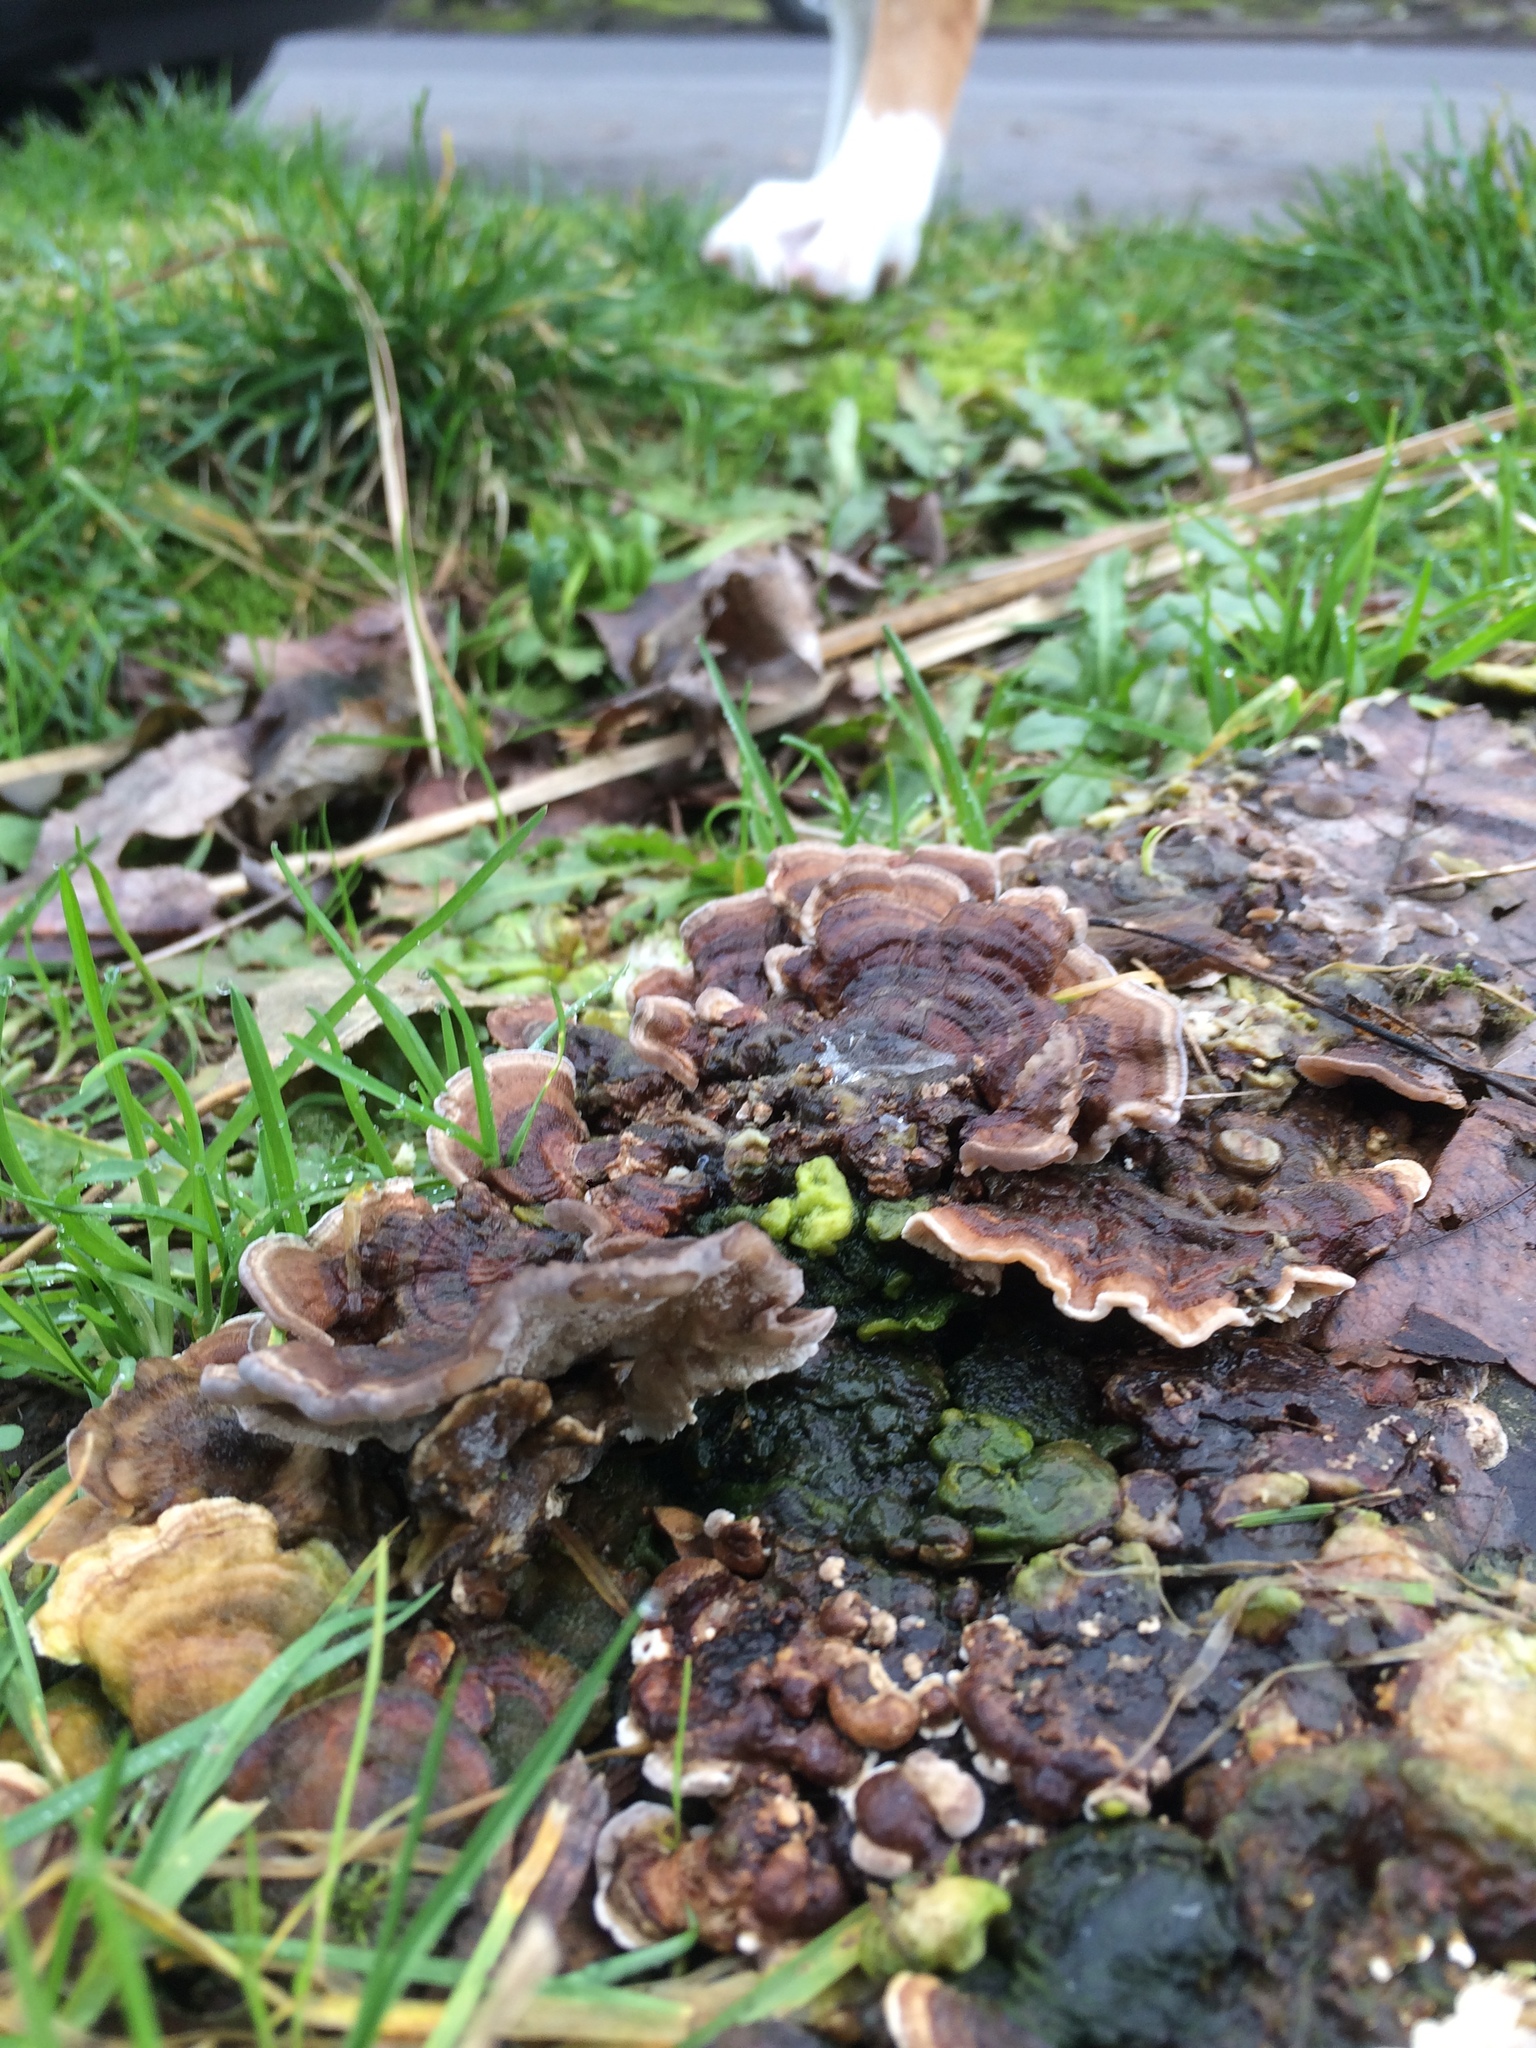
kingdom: Fungi
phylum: Basidiomycota
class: Agaricomycetes
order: Polyporales
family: Polyporaceae
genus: Trametes
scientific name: Trametes versicolor
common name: Turkeytail
